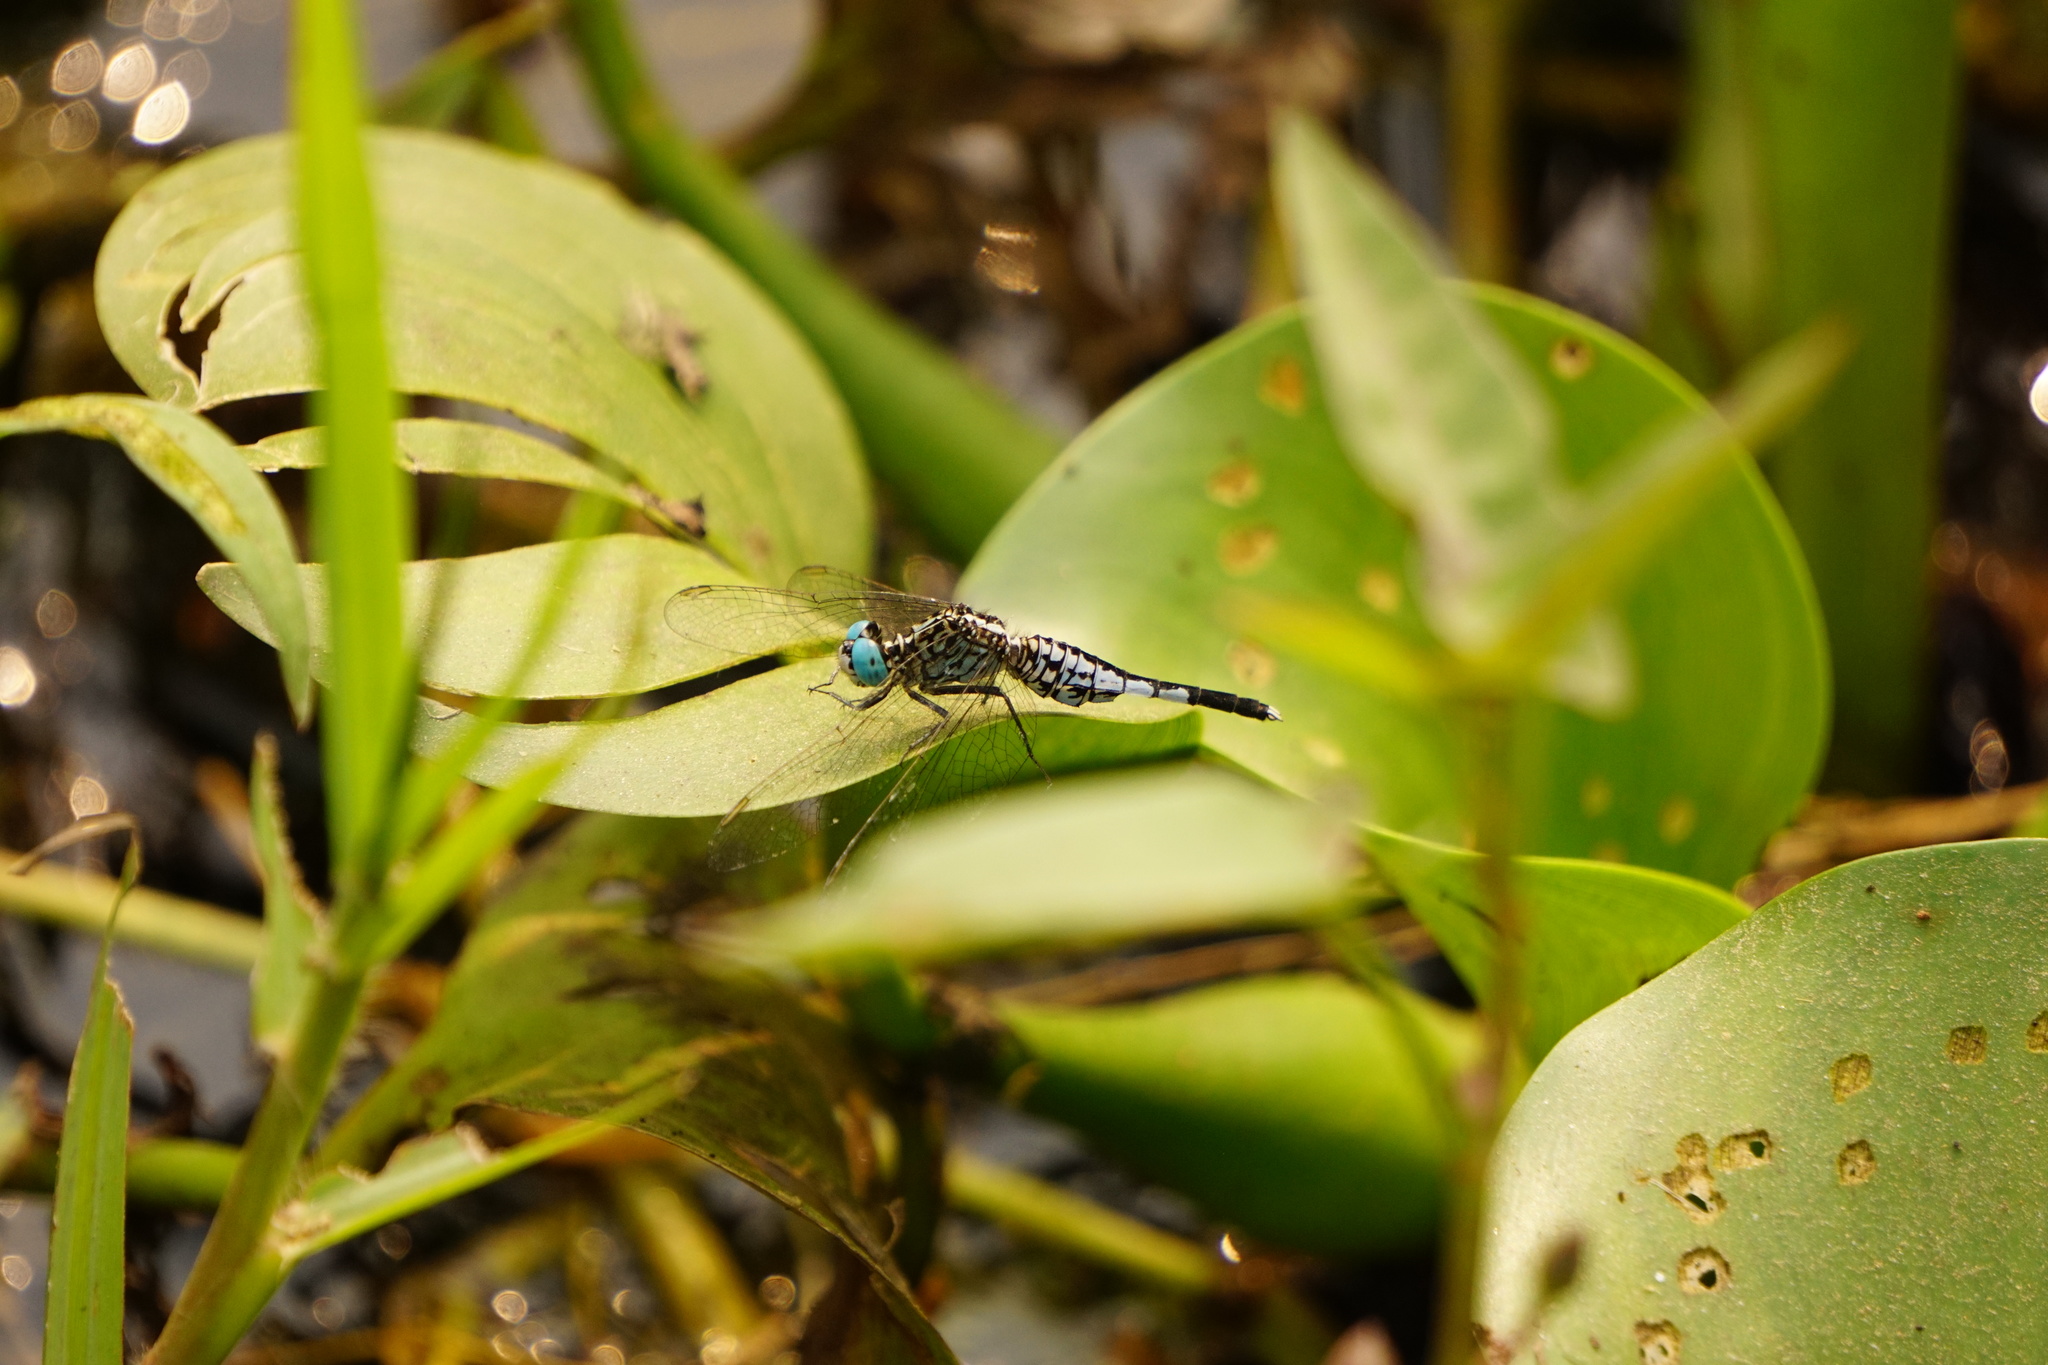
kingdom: Animalia
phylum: Arthropoda
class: Insecta
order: Odonata
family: Libellulidae
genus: Acisoma
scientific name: Acisoma panorpoides
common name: Asian pintail
